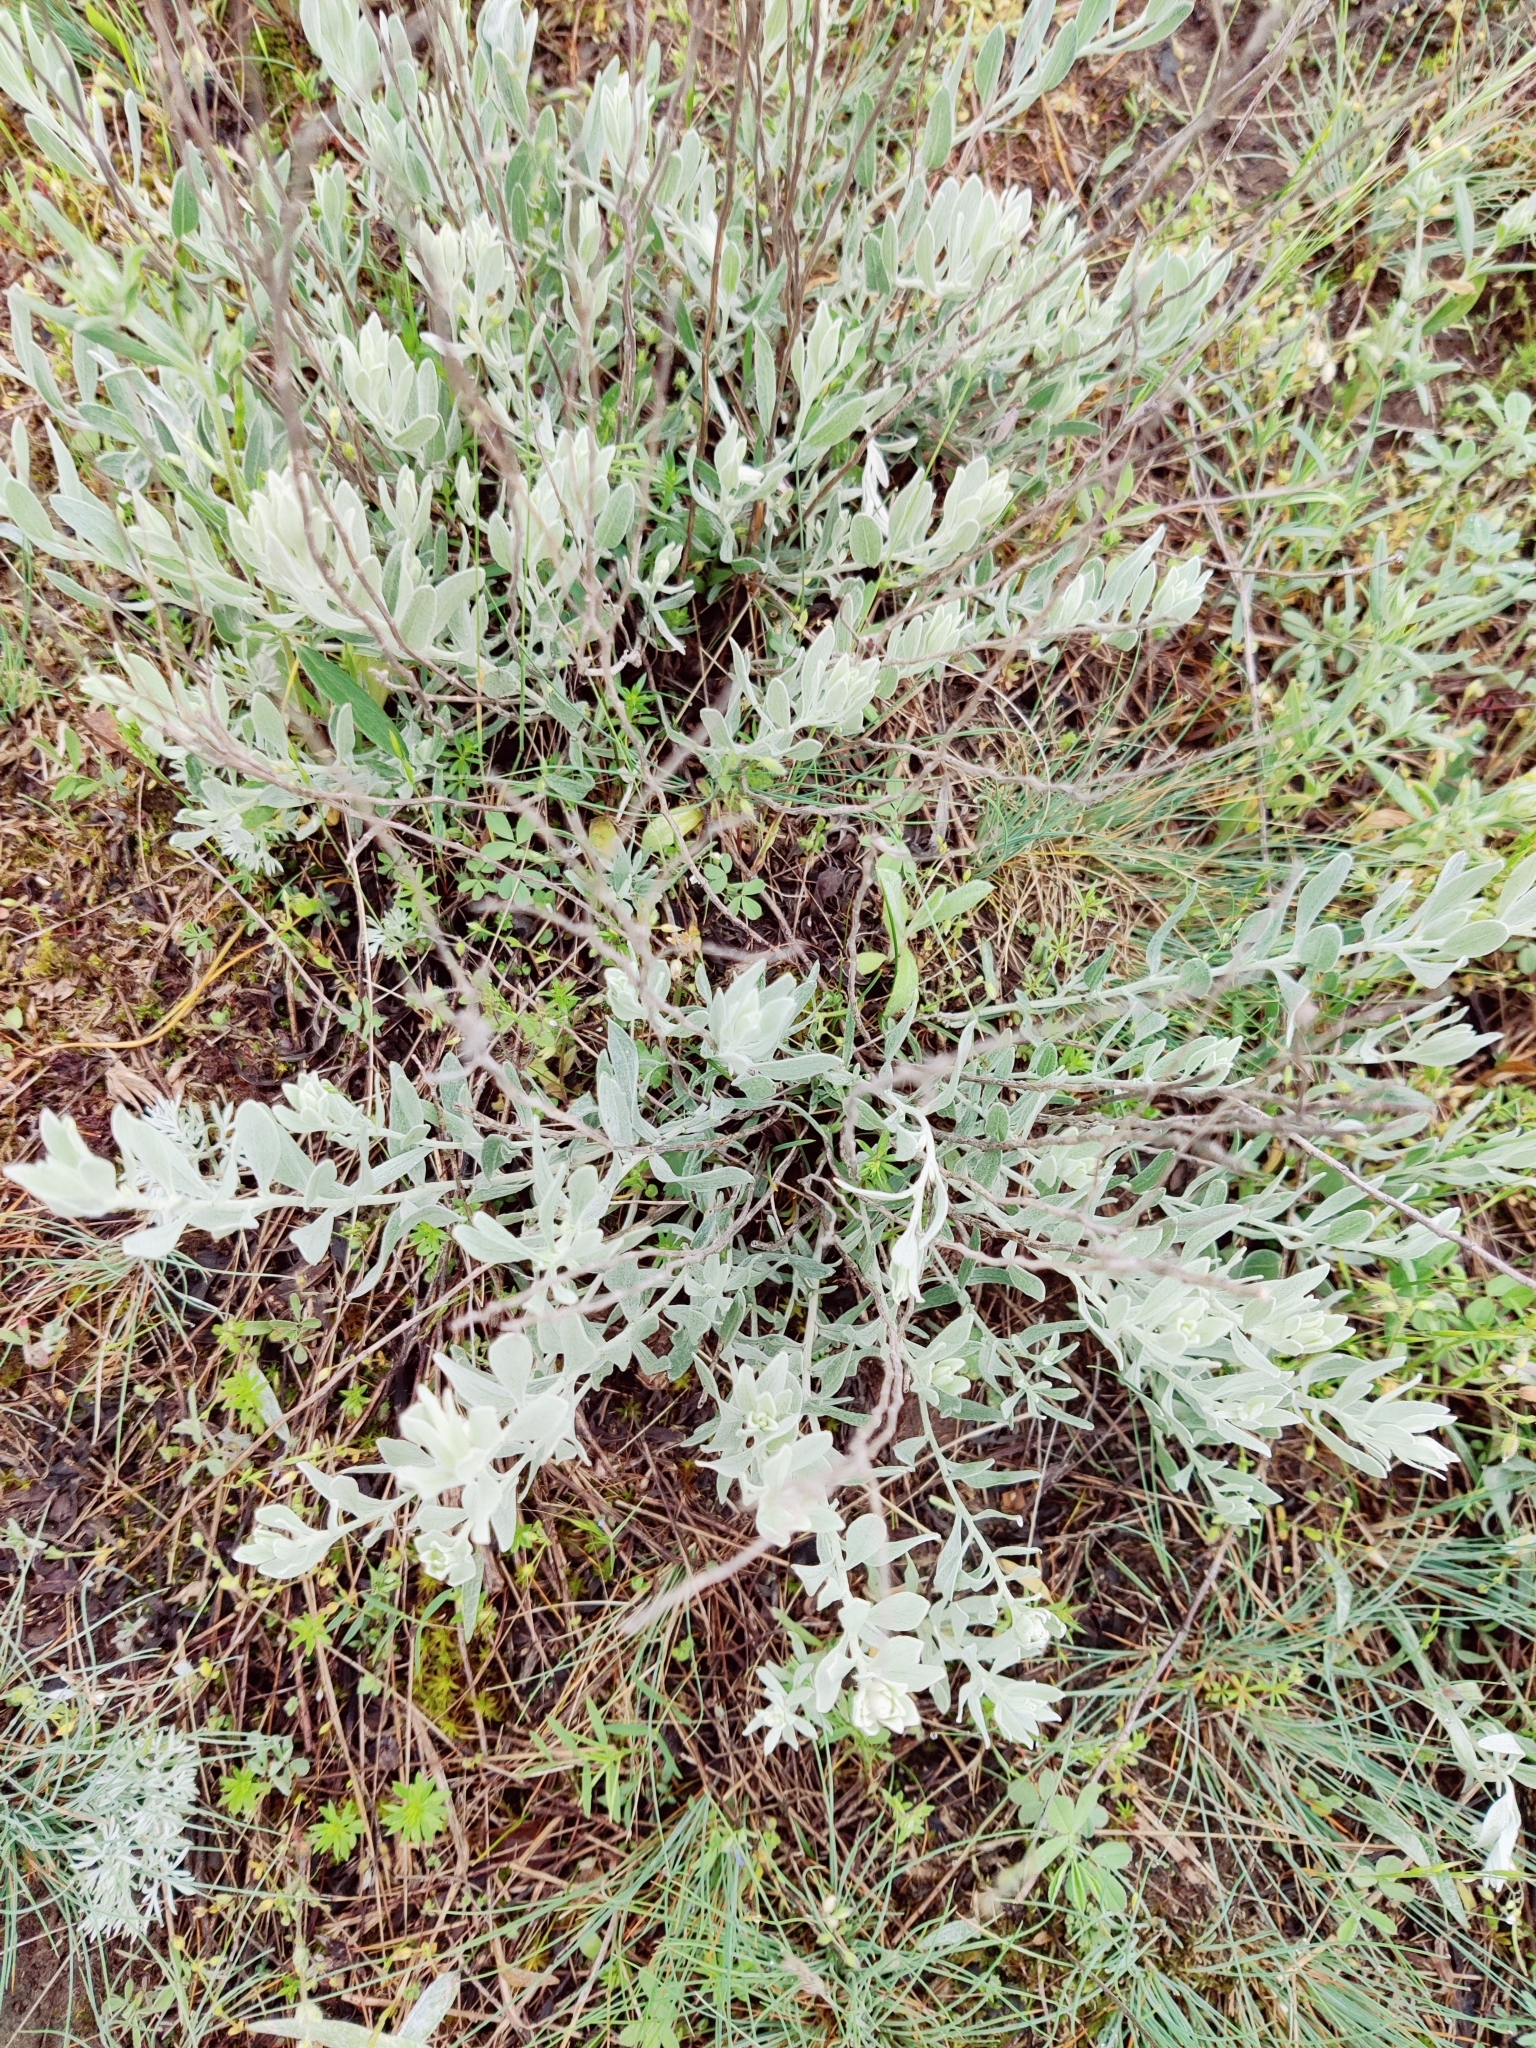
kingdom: Plantae
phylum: Tracheophyta
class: Magnoliopsida
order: Asterales
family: Asteraceae
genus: Galatella
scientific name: Galatella villosa
